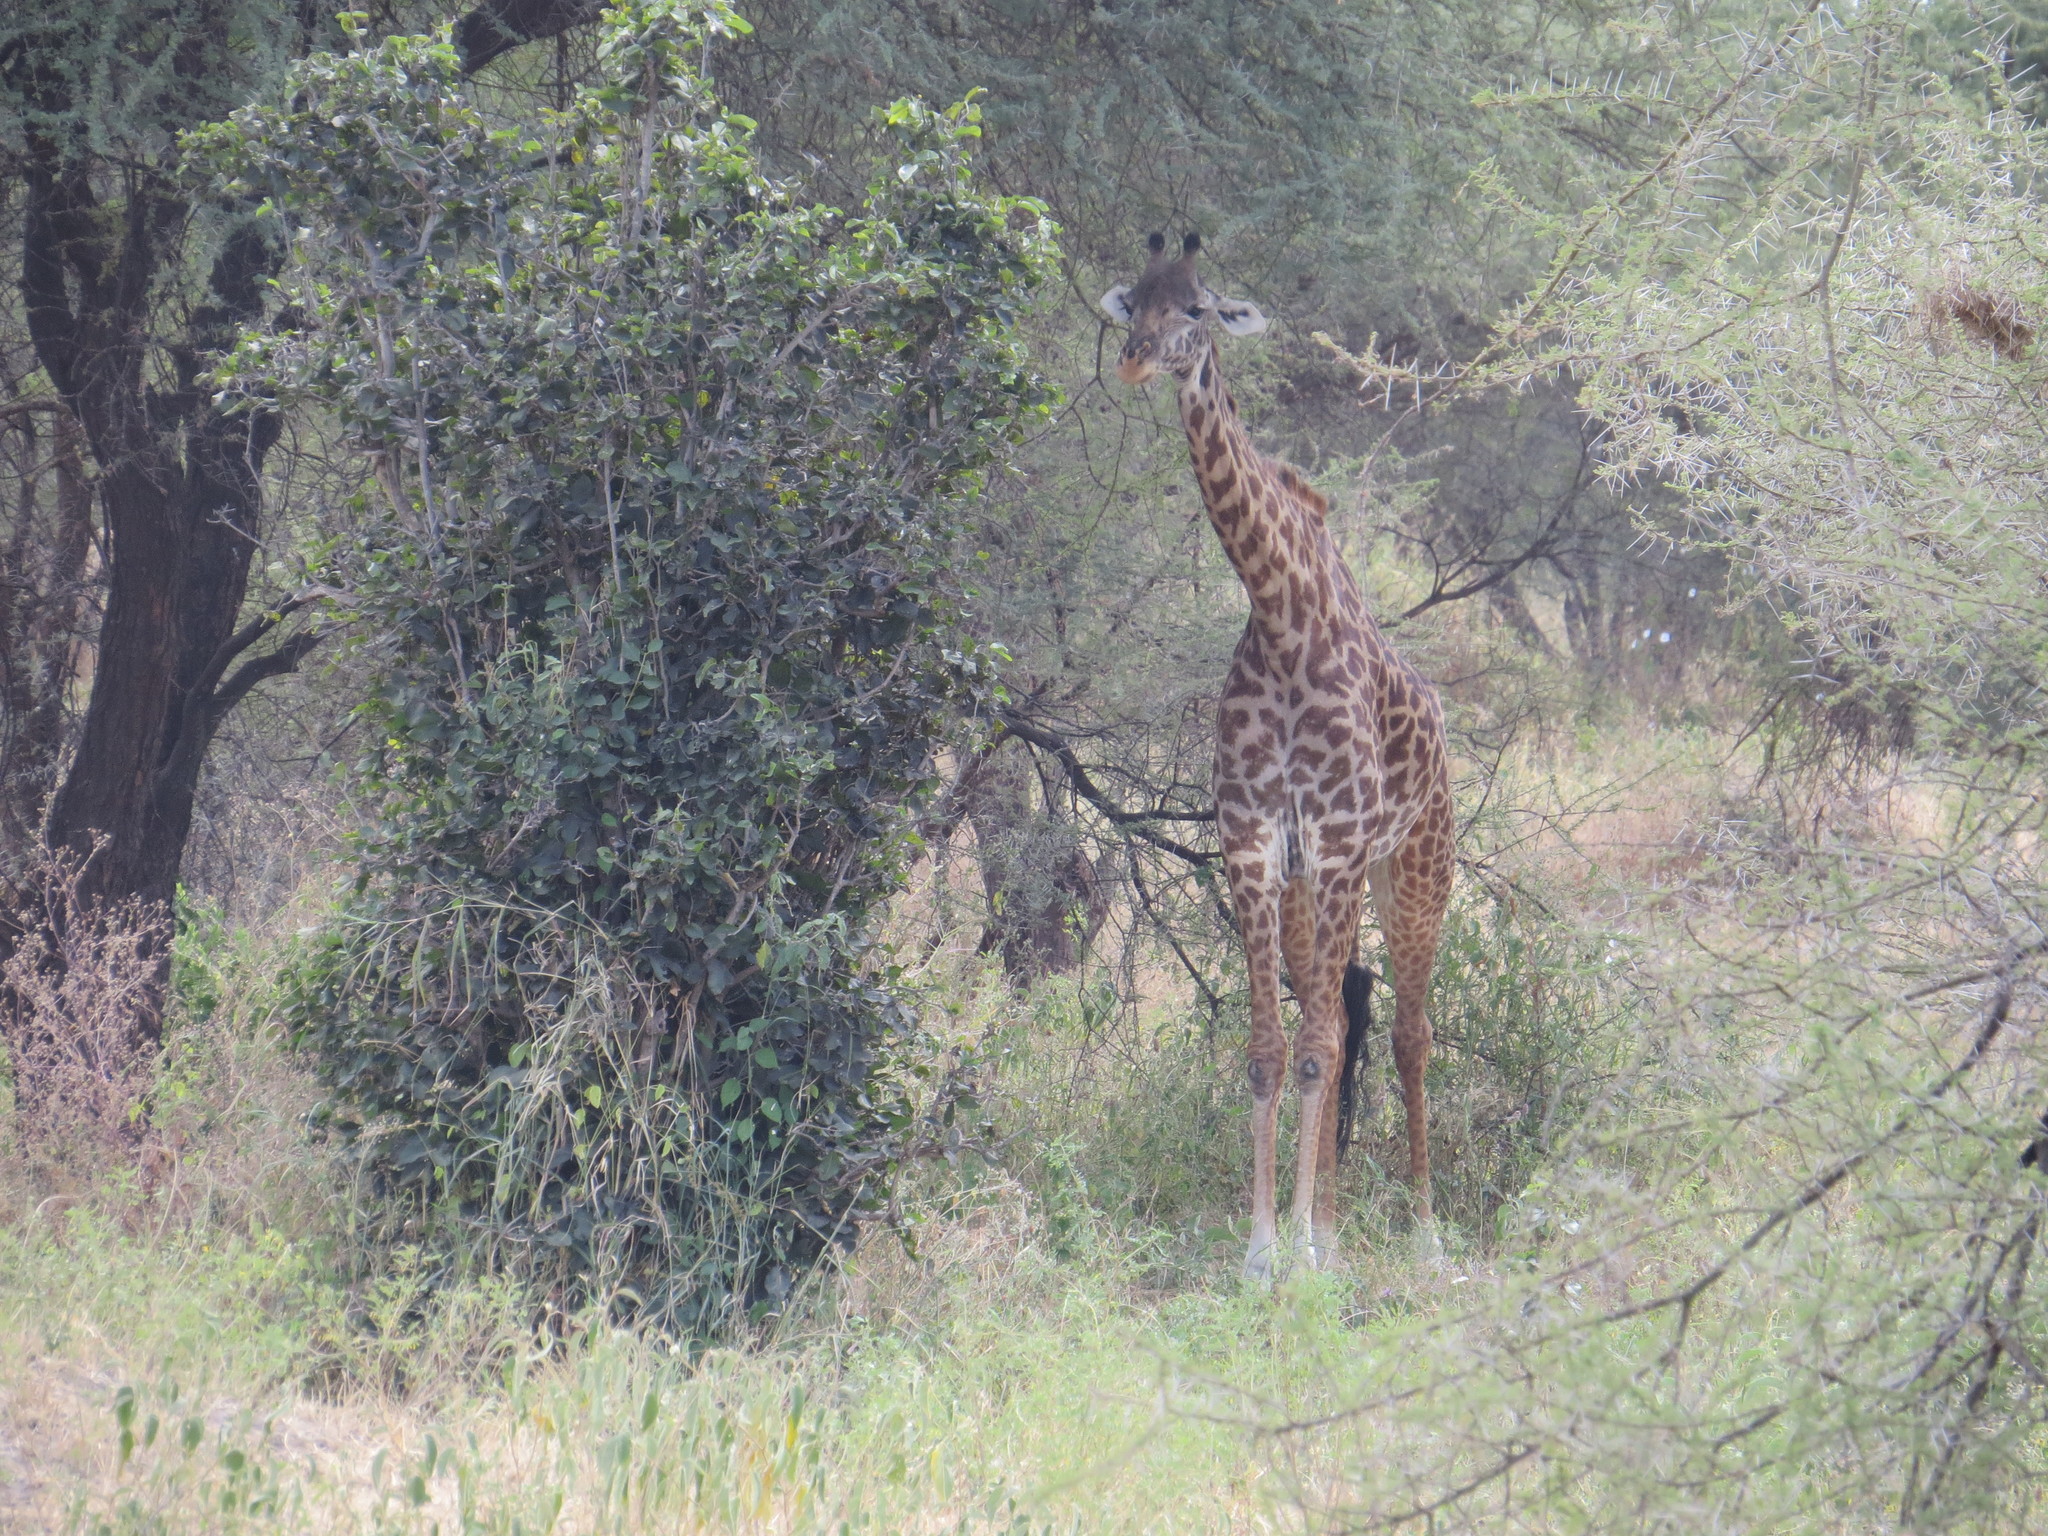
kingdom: Animalia
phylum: Chordata
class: Mammalia
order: Artiodactyla
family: Giraffidae
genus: Giraffa
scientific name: Giraffa tippelskirchi
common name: Masai giraffe
